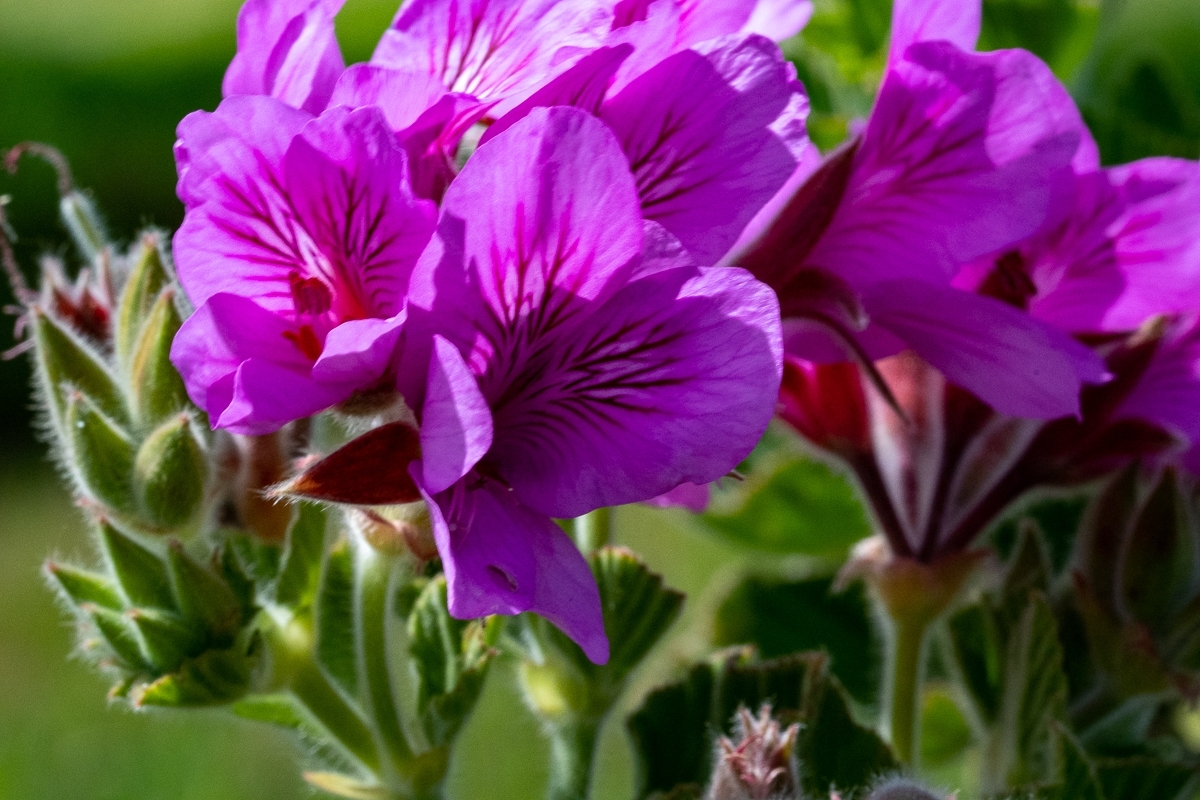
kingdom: Plantae
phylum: Tracheophyta
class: Magnoliopsida
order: Geraniales
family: Geraniaceae
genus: Pelargonium
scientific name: Pelargonium cucullatum
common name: Tree pelargonium
